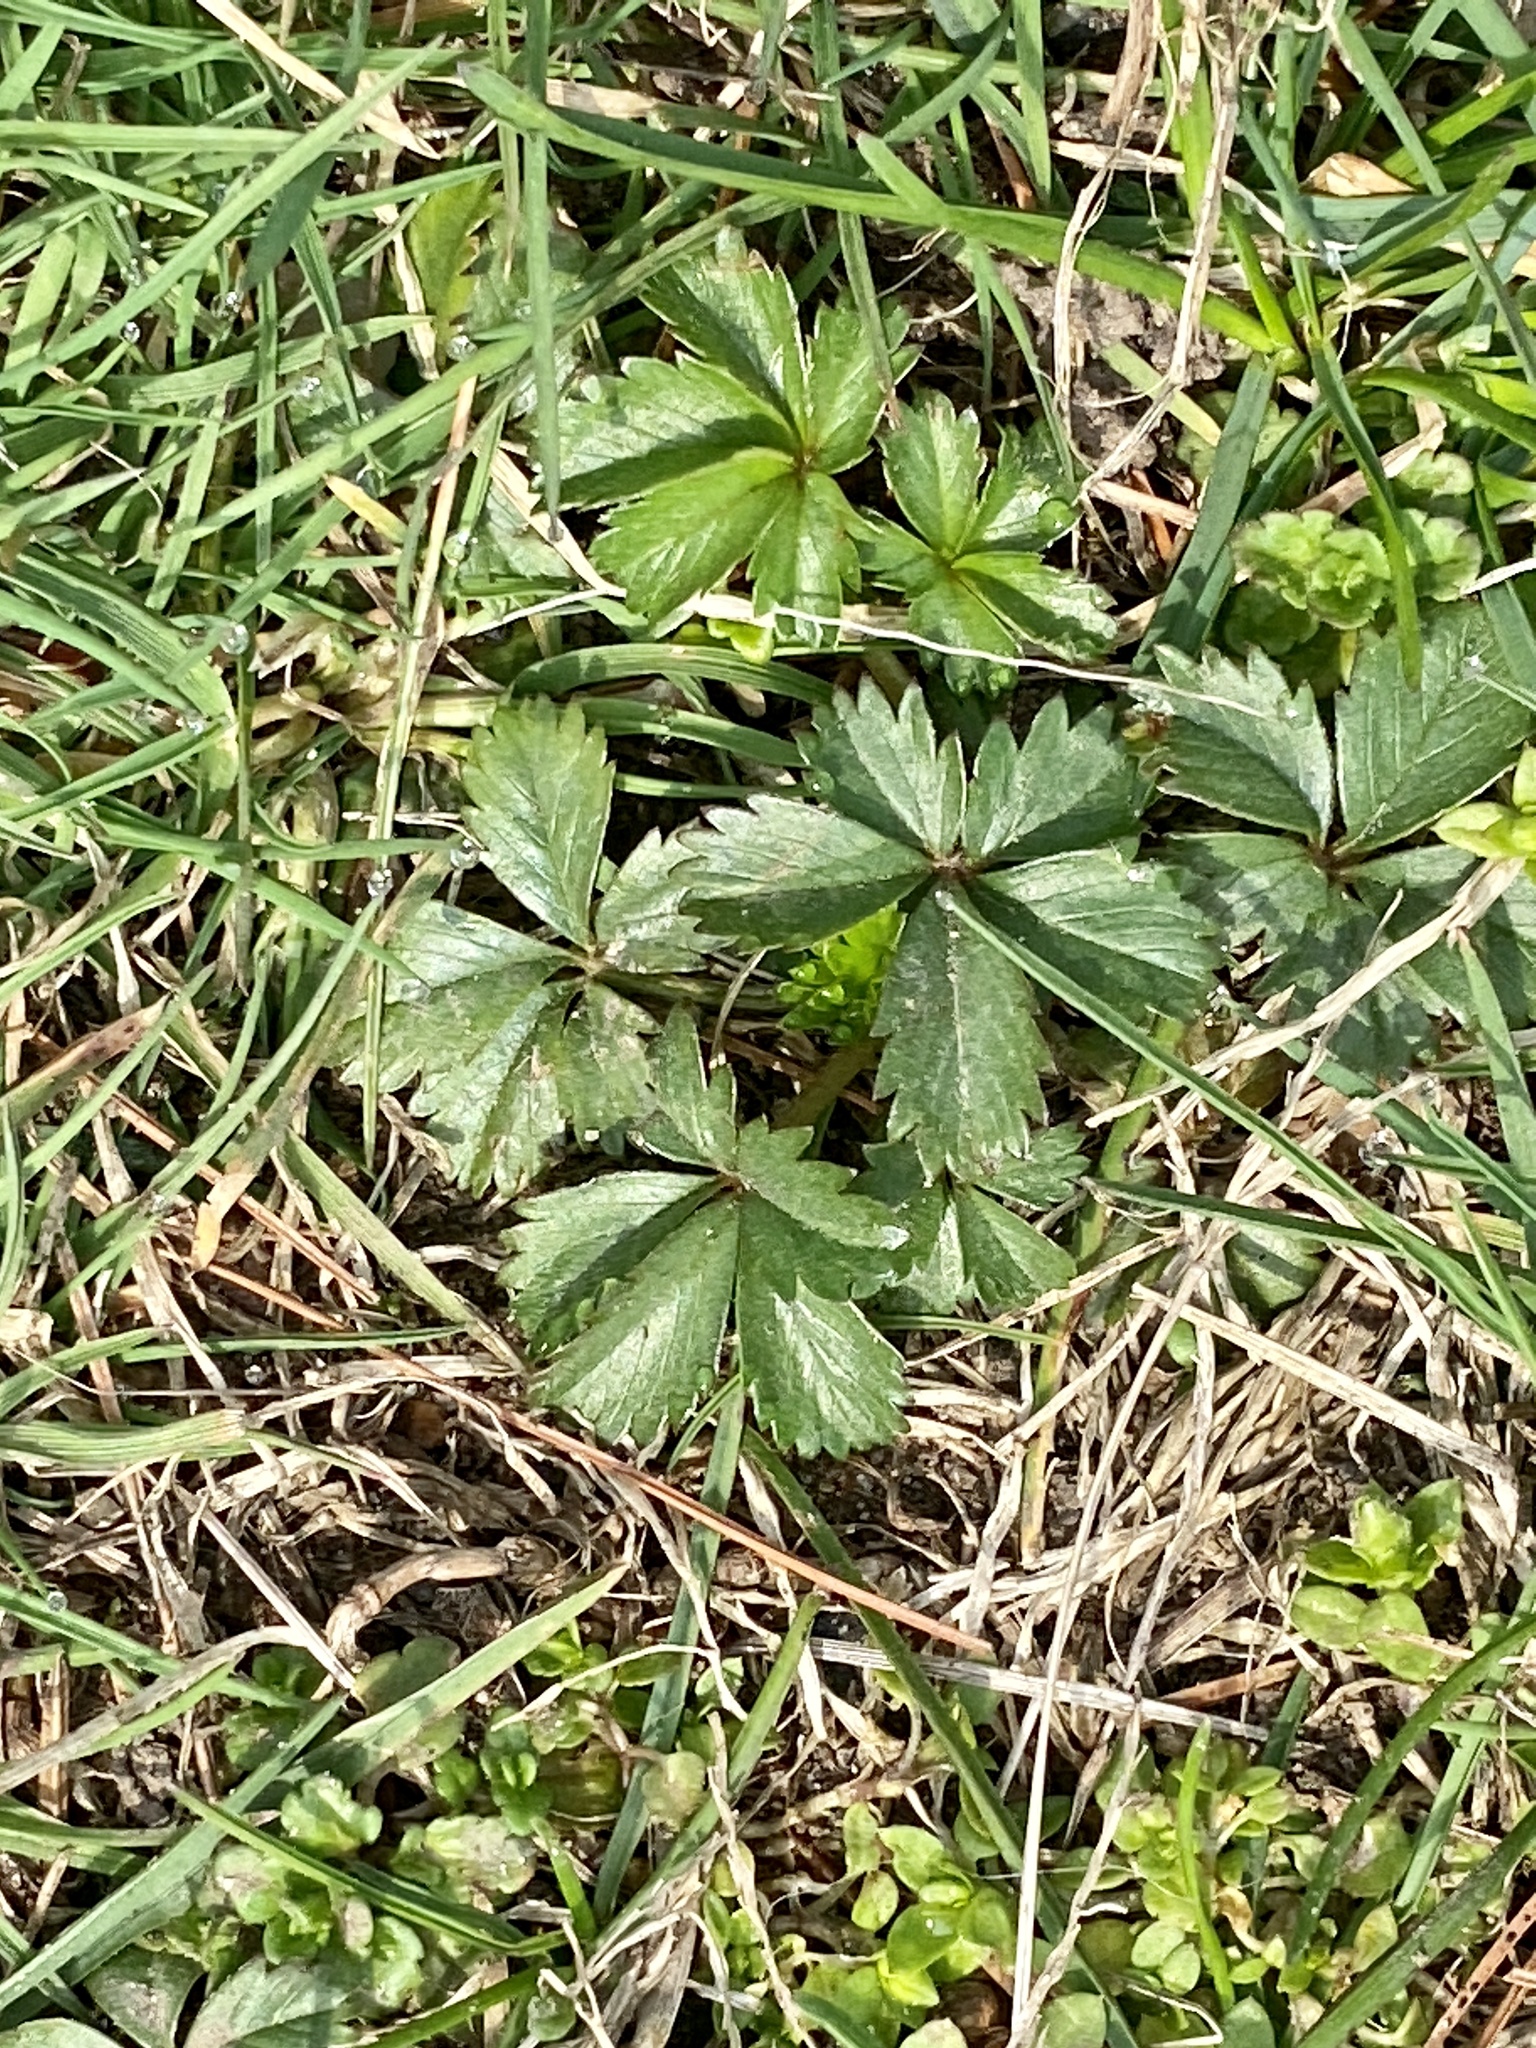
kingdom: Plantae
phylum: Tracheophyta
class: Magnoliopsida
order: Rosales
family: Rosaceae
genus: Potentilla
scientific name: Potentilla canadensis
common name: Canada cinquefoil
